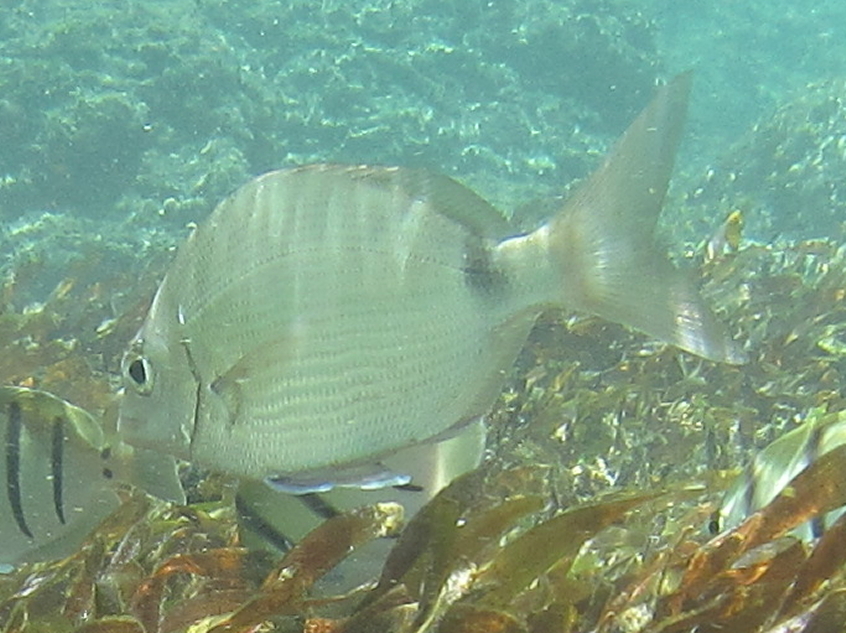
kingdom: Animalia
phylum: Chordata
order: Perciformes
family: Sparidae
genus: Diplodus
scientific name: Diplodus capensis
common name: Blacktail
